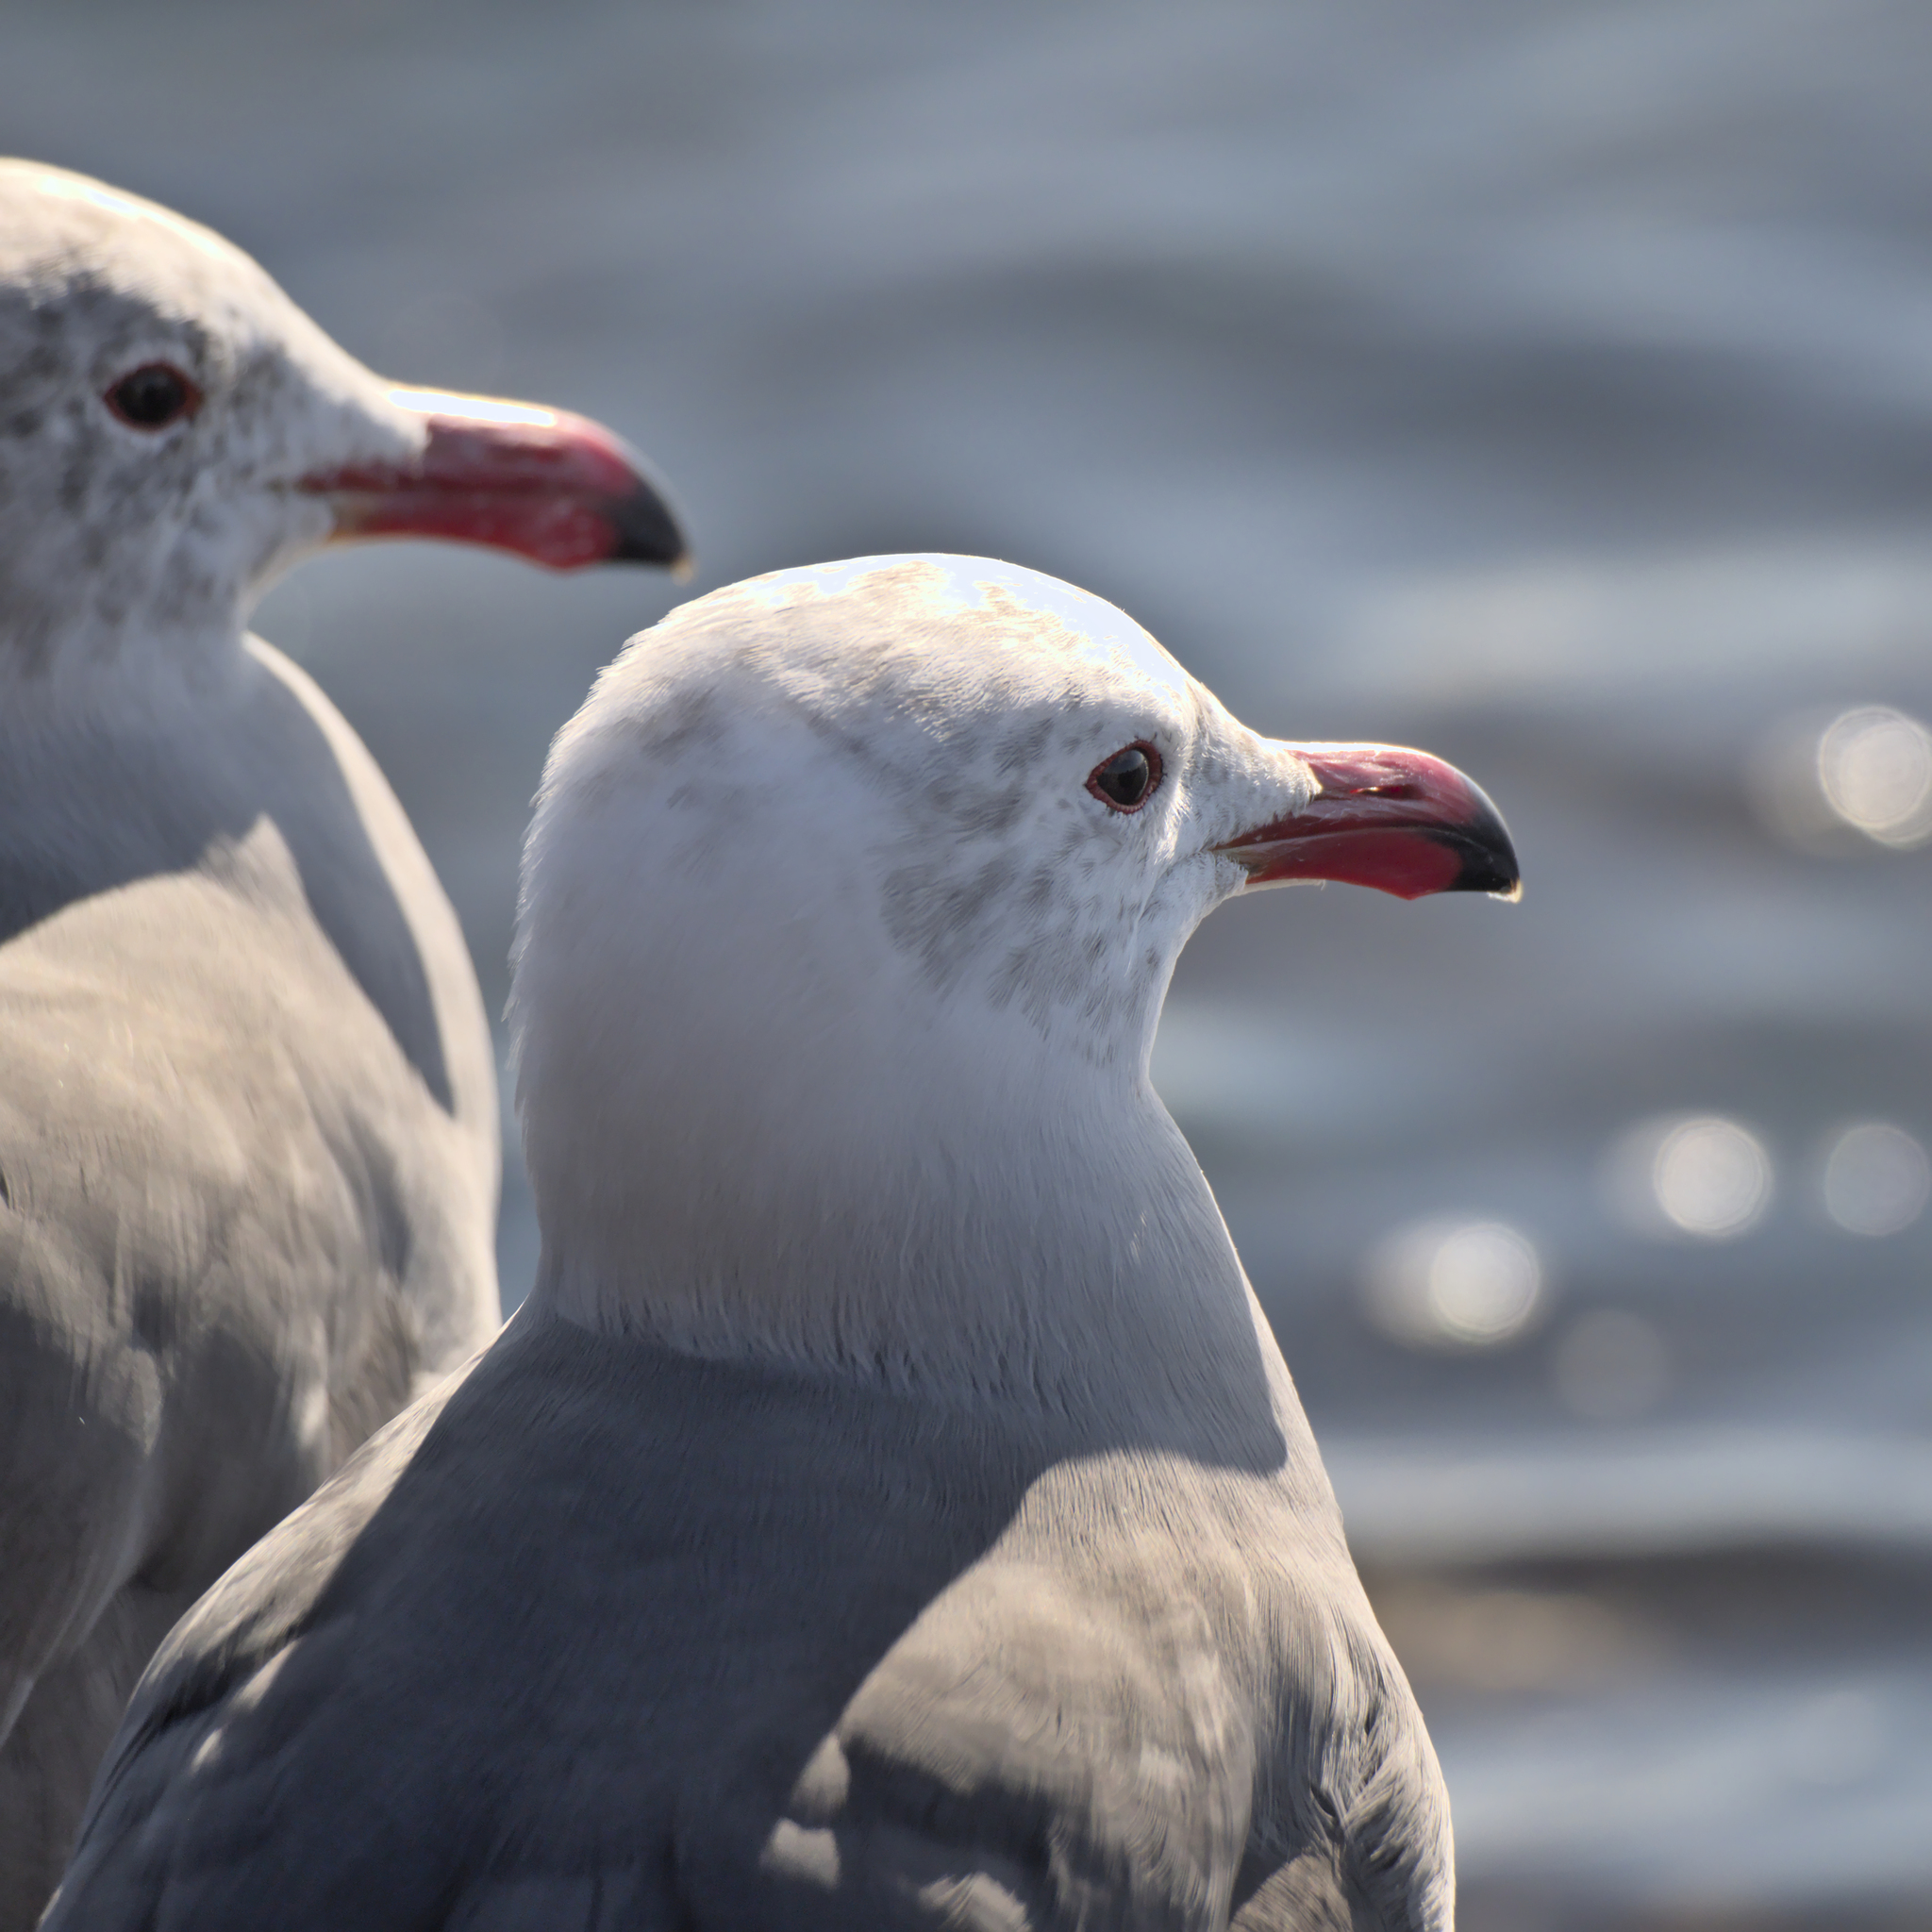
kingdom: Animalia
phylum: Chordata
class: Aves
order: Charadriiformes
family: Laridae
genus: Larus
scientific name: Larus heermanni
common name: Heermann's gull
